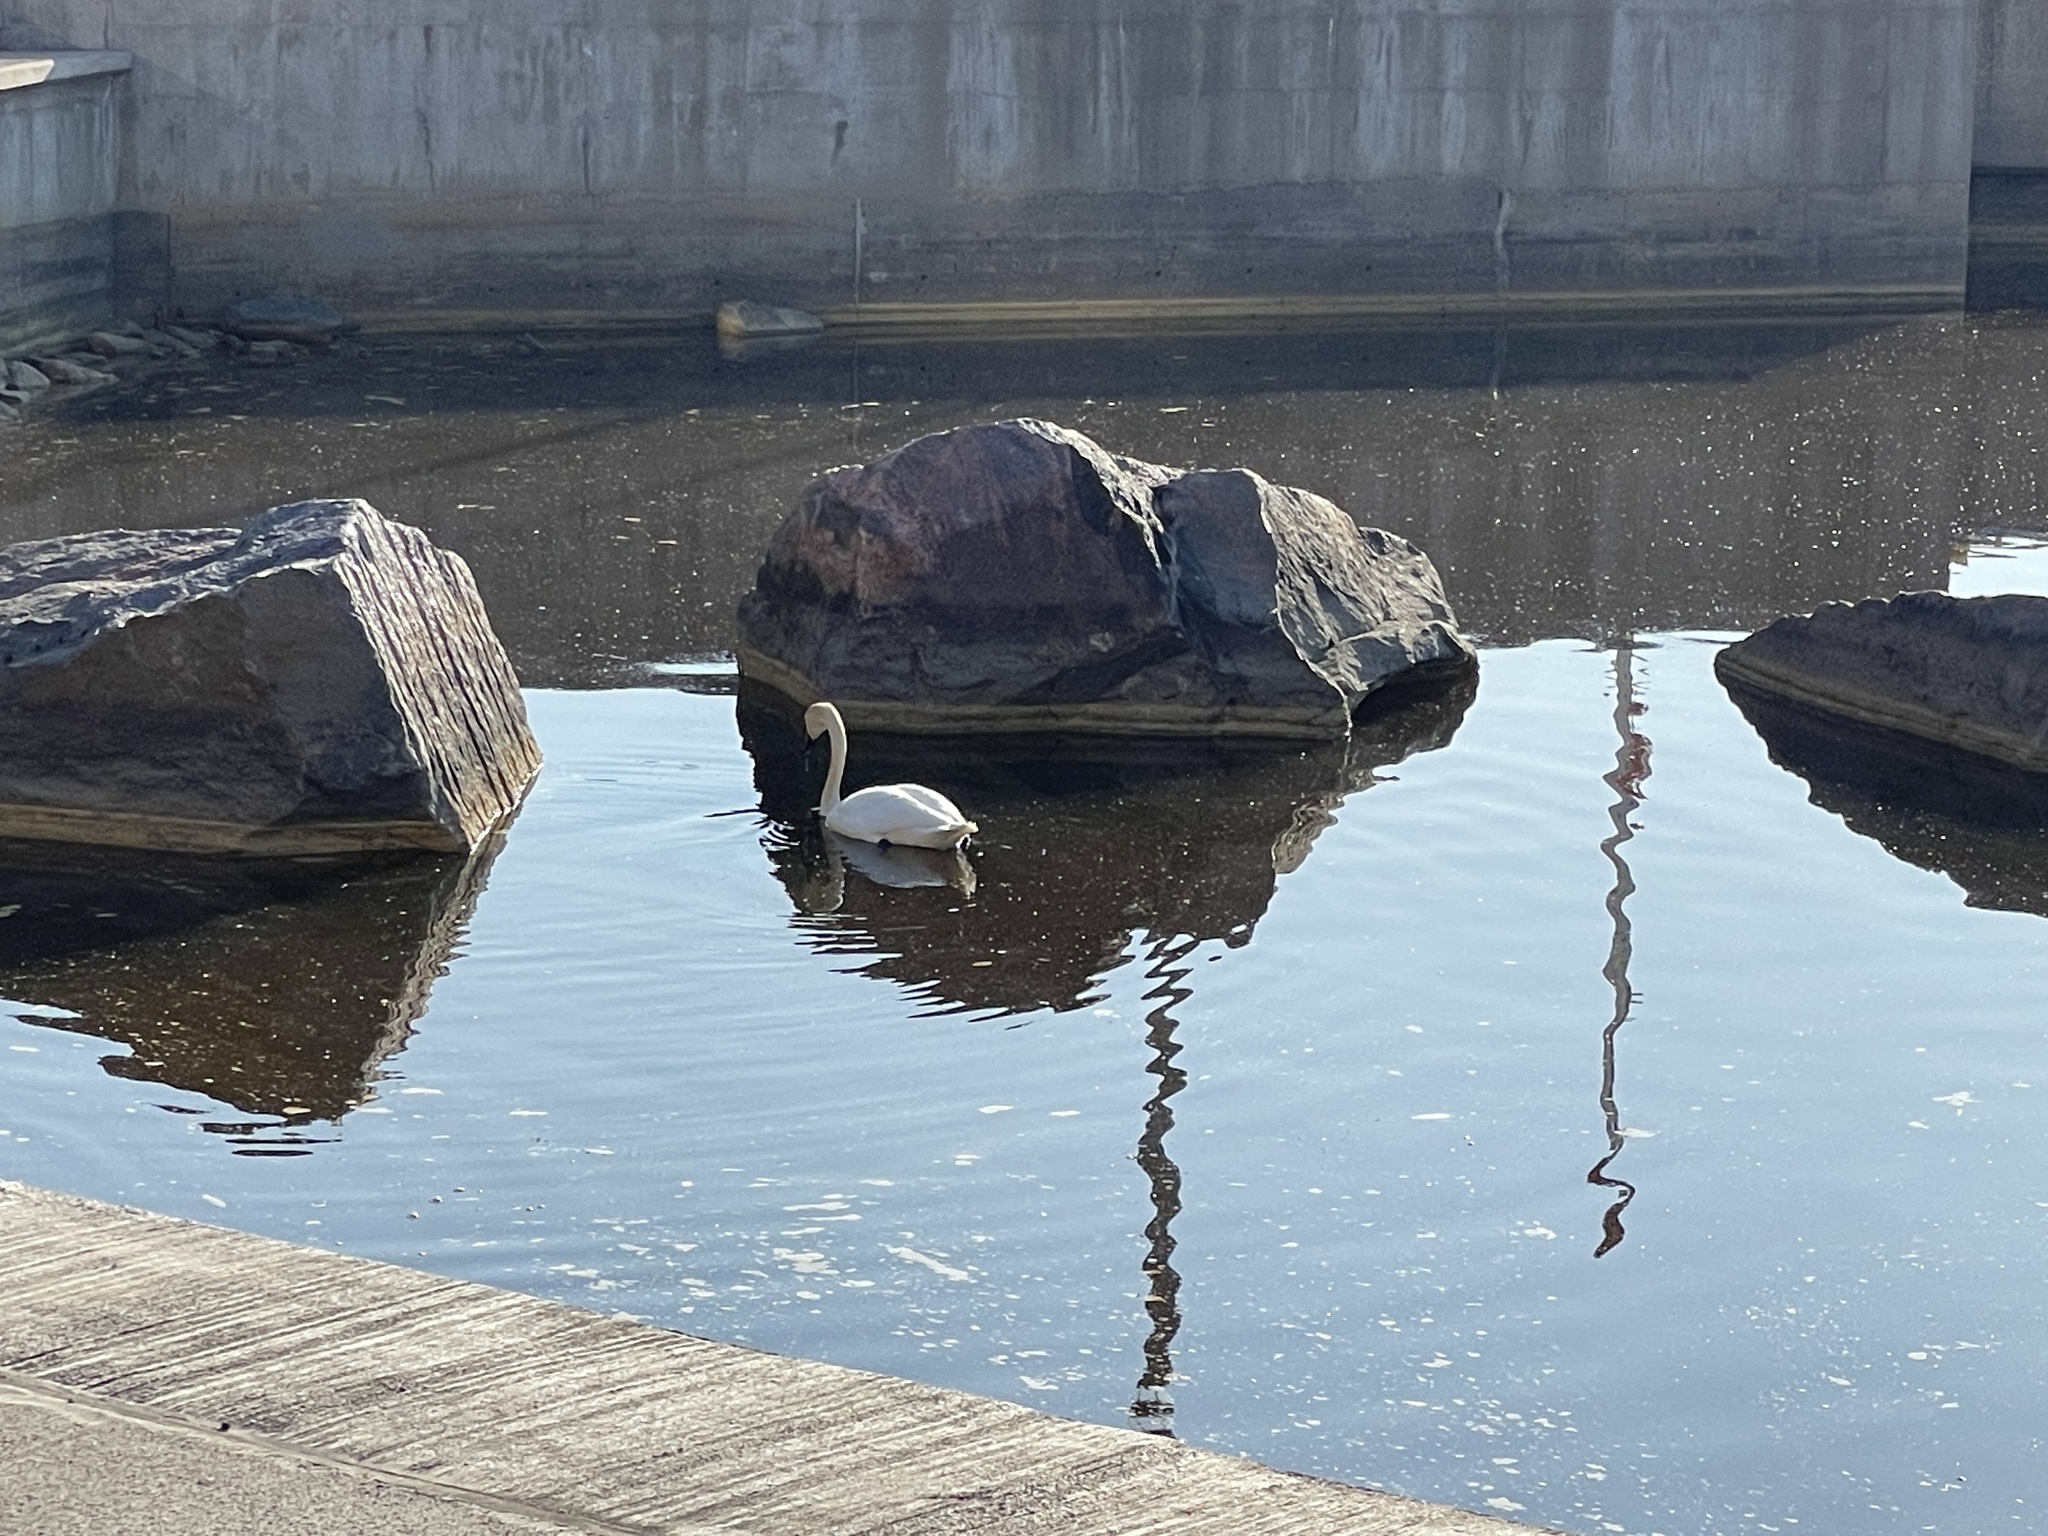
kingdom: Animalia
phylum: Chordata
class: Aves
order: Anseriformes
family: Anatidae
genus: Cygnus
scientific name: Cygnus olor
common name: Mute swan
